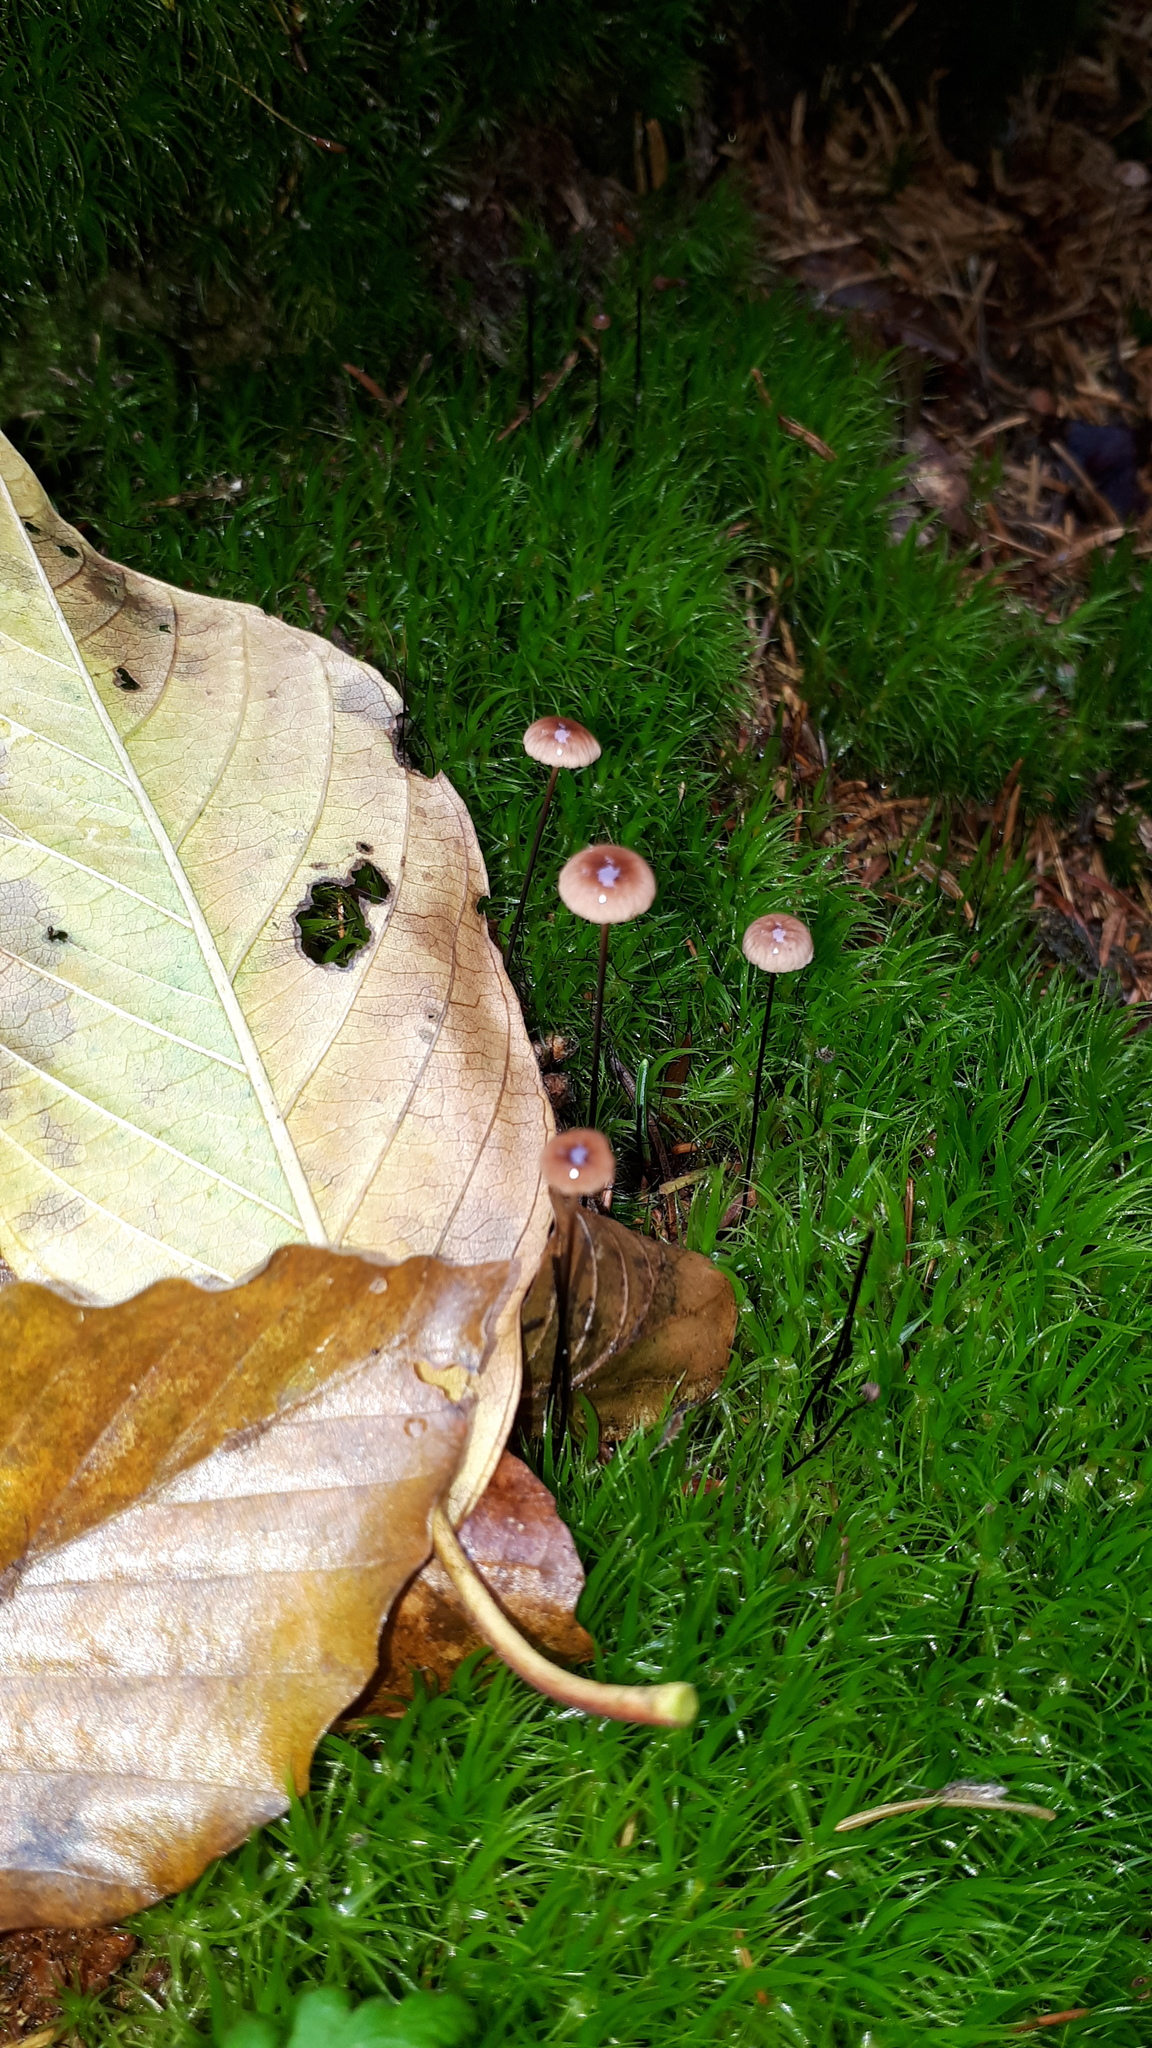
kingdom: Fungi
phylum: Basidiomycota
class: Agaricomycetes
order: Agaricales
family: Omphalotaceae
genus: Gymnopus
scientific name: Gymnopus androsaceus
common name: Horse-hair fungus
